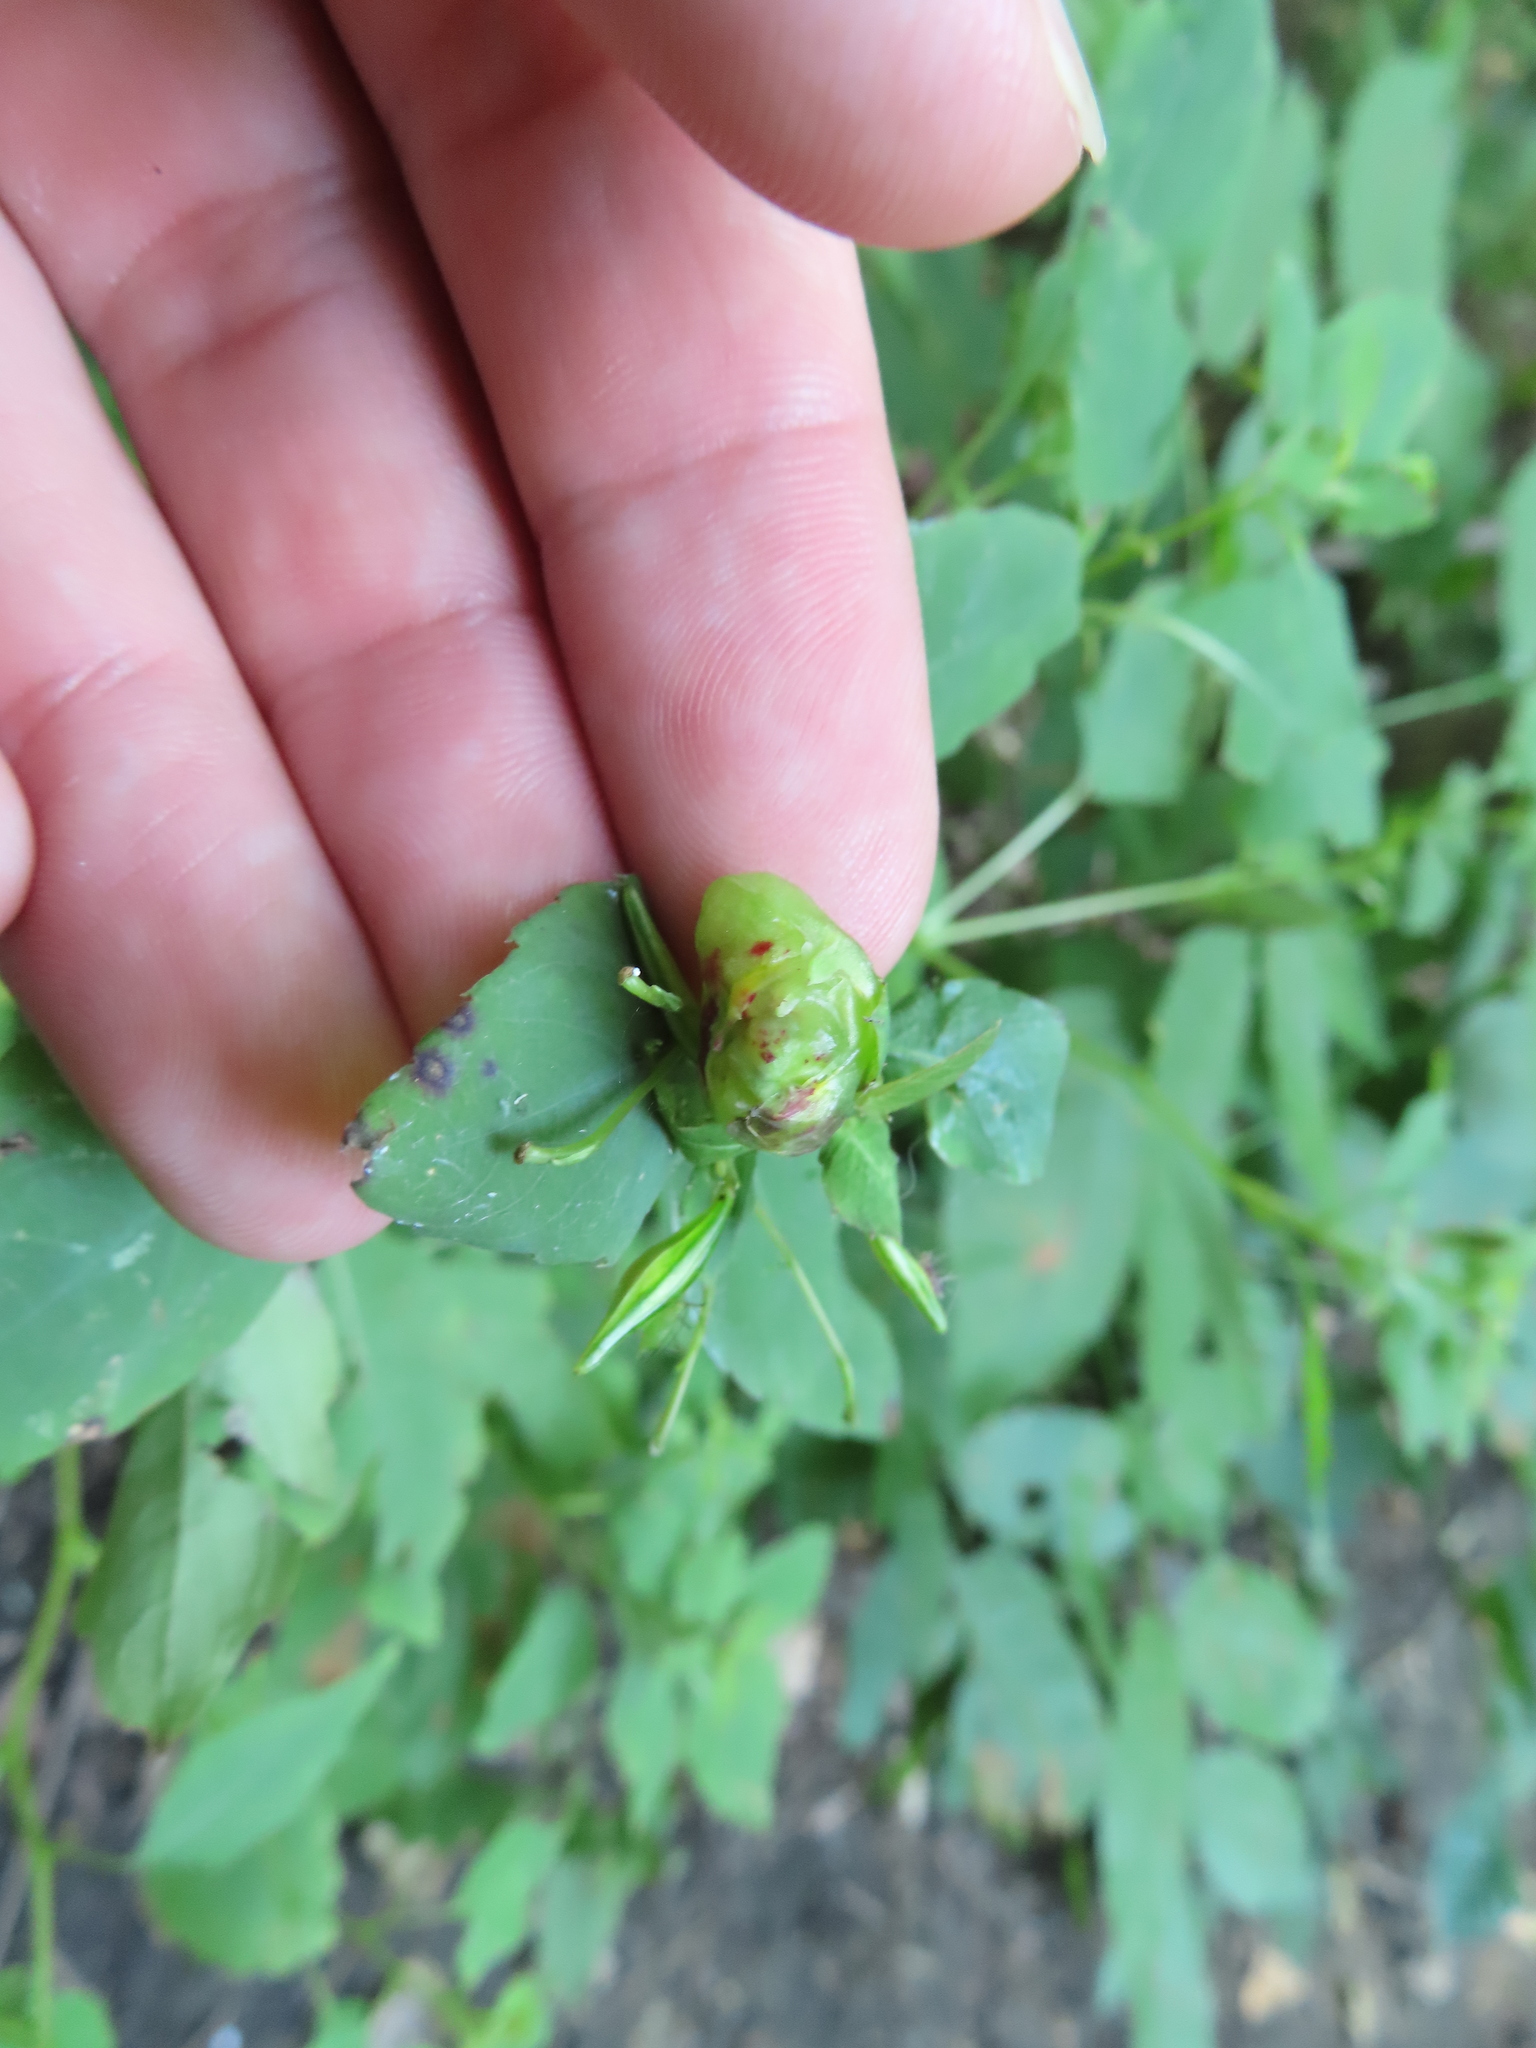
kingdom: Animalia
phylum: Arthropoda
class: Insecta
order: Diptera
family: Cecidomyiidae
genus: Schizomyia
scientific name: Schizomyia impatientis
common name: Jewelweed gall midge
